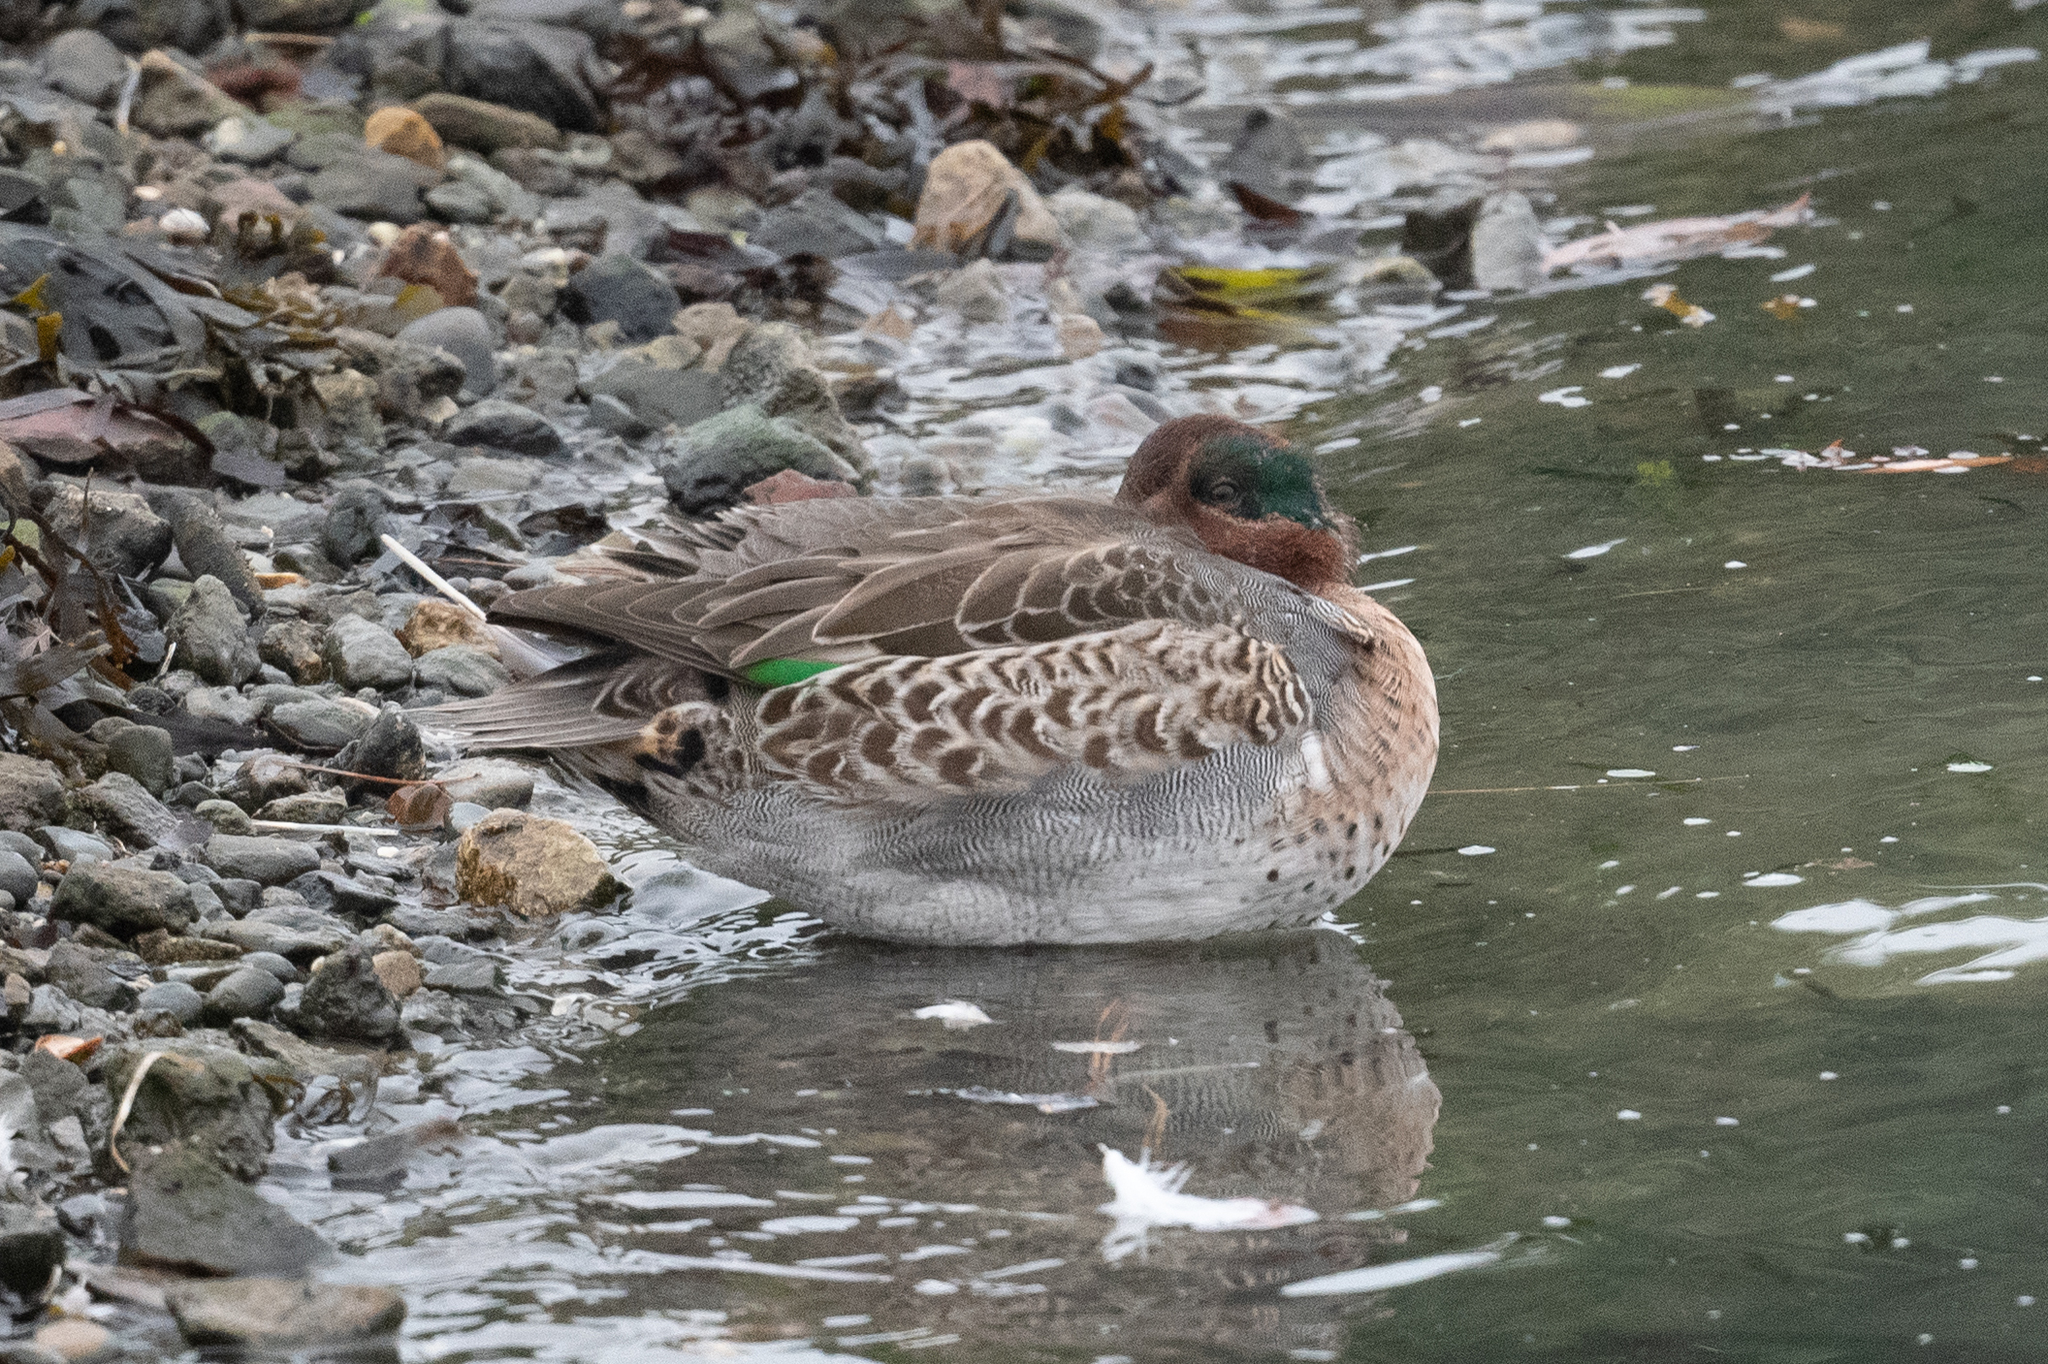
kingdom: Animalia
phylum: Chordata
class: Aves
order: Anseriformes
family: Anatidae
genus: Anas
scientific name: Anas crecca
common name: Eurasian teal
